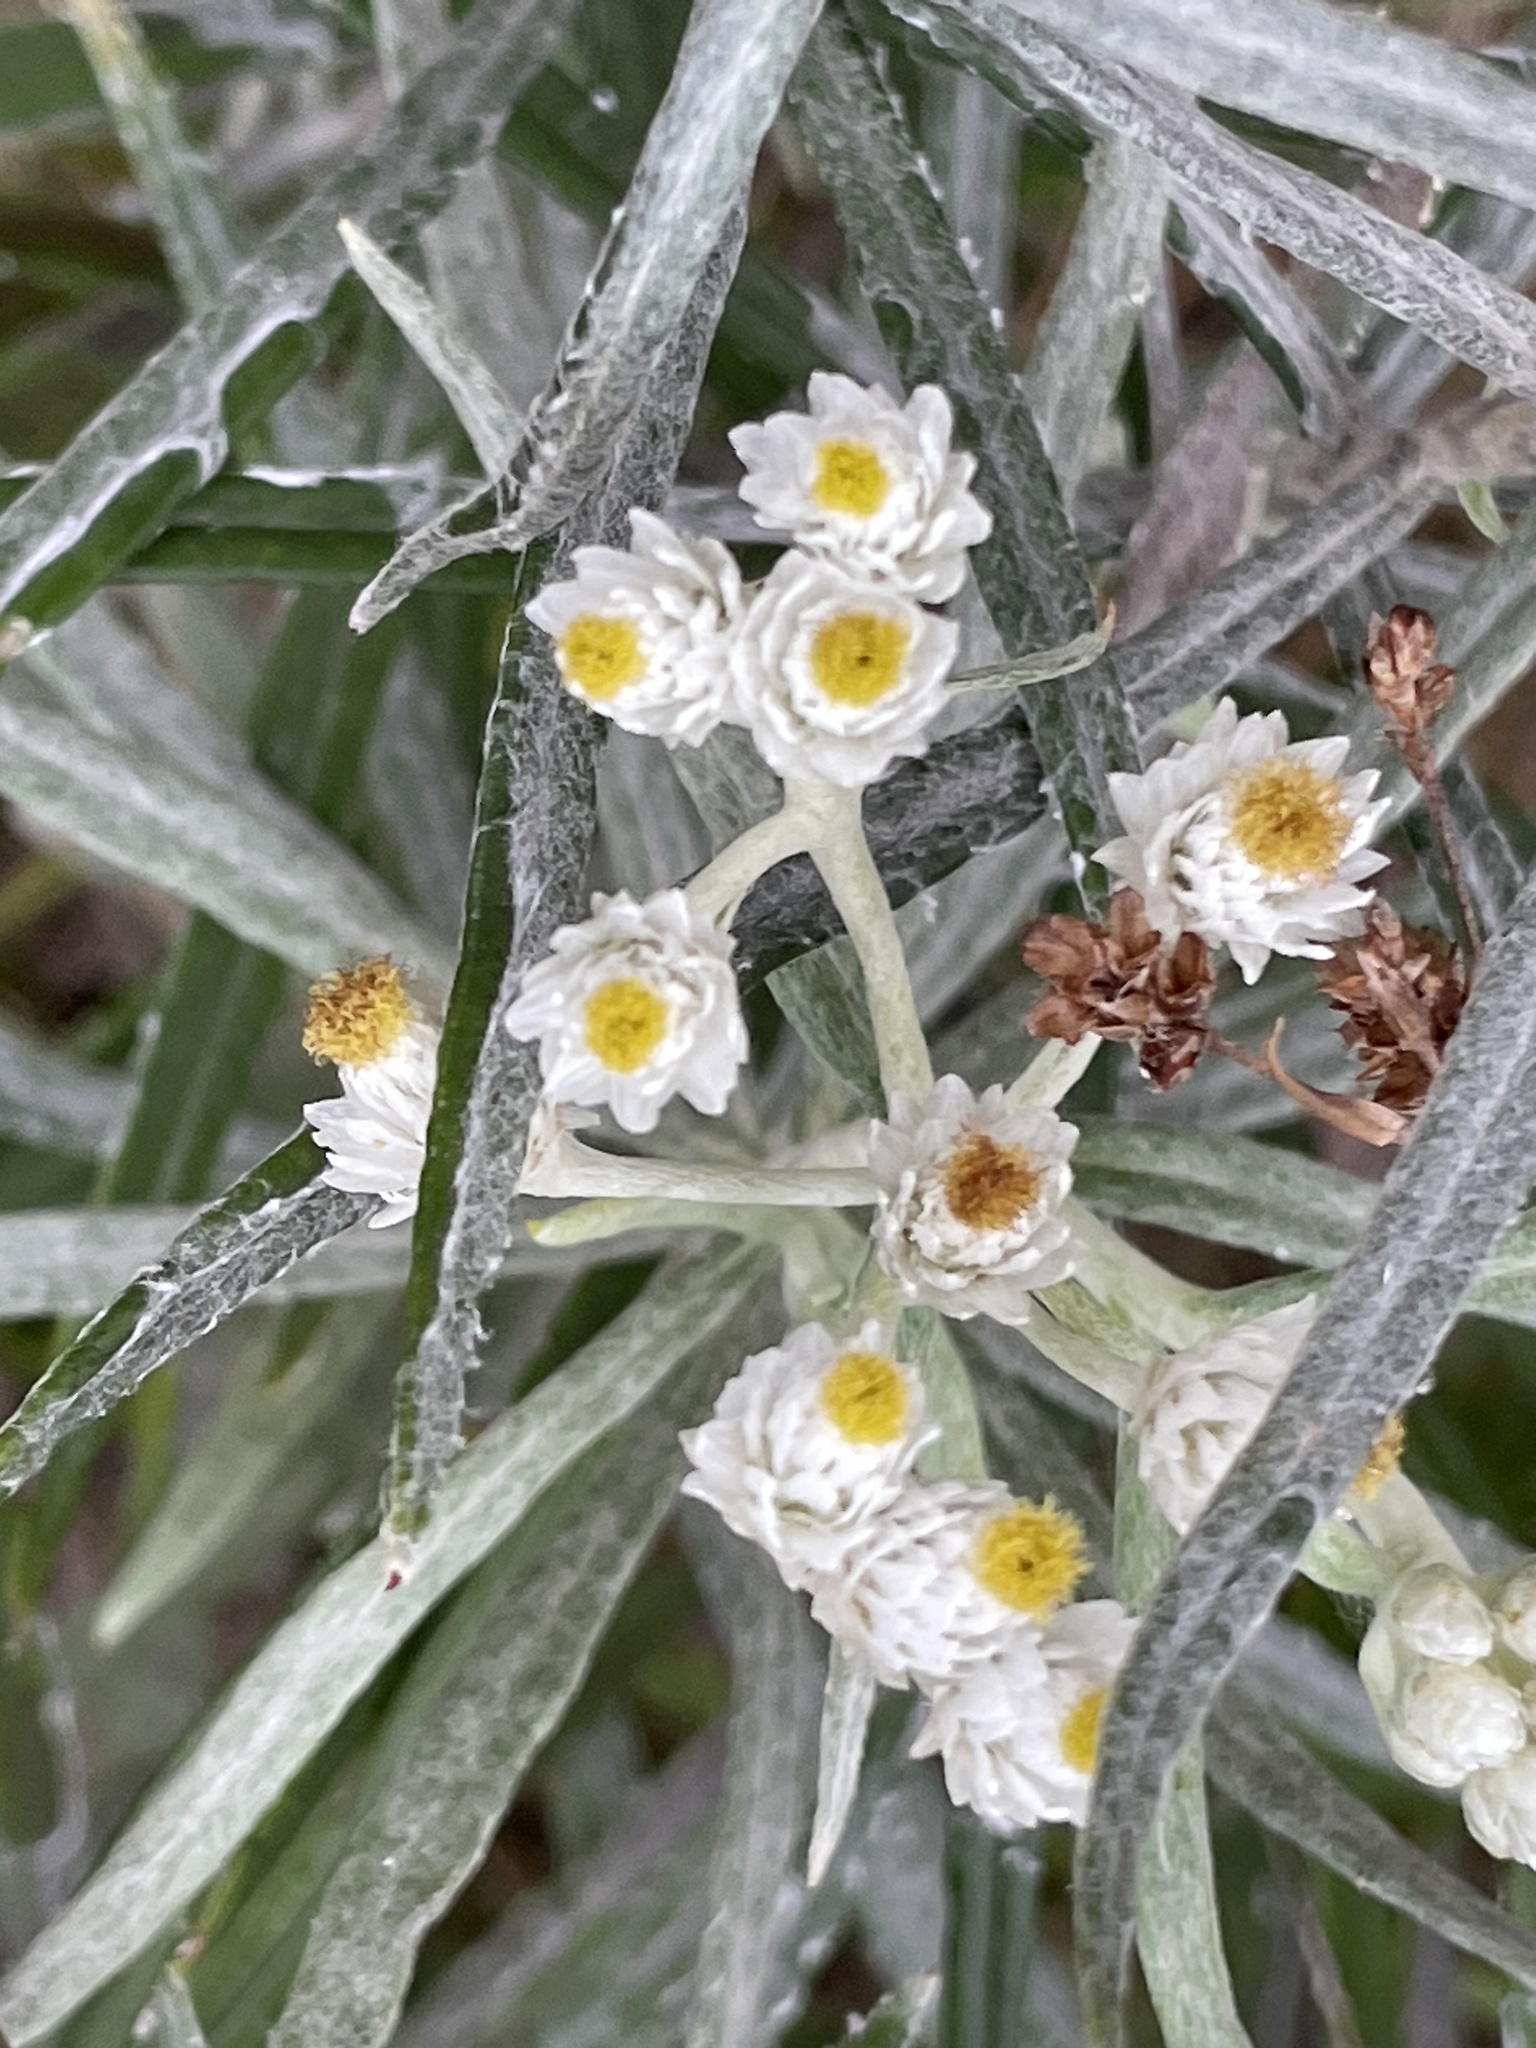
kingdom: Plantae
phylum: Tracheophyta
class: Magnoliopsida
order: Asterales
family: Asteraceae
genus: Anaphalis
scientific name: Anaphalis margaritacea
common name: Pearly everlasting
